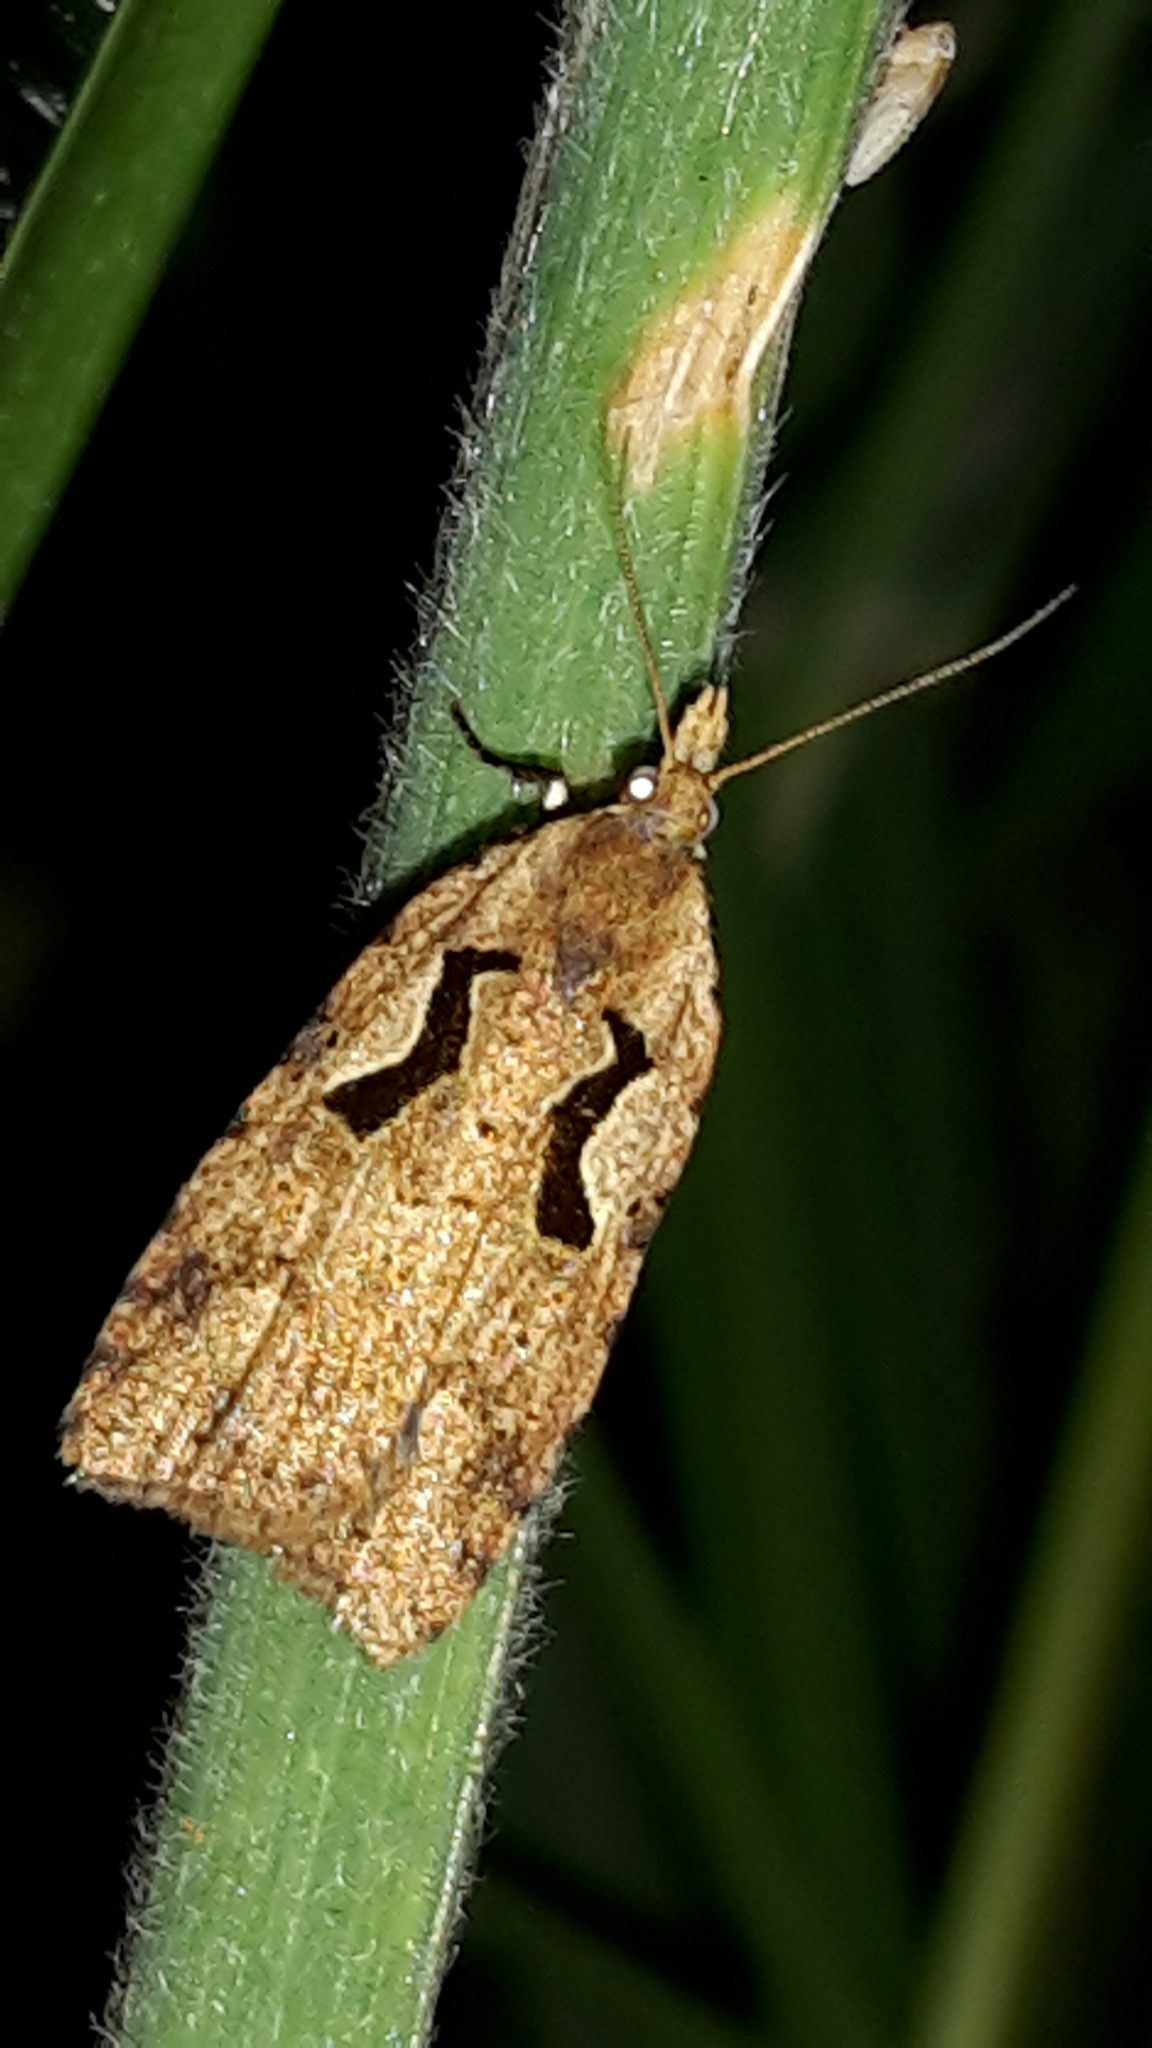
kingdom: Animalia
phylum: Arthropoda
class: Insecta
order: Lepidoptera
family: Tortricidae
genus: Cnephasia
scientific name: Cnephasia jactatana
